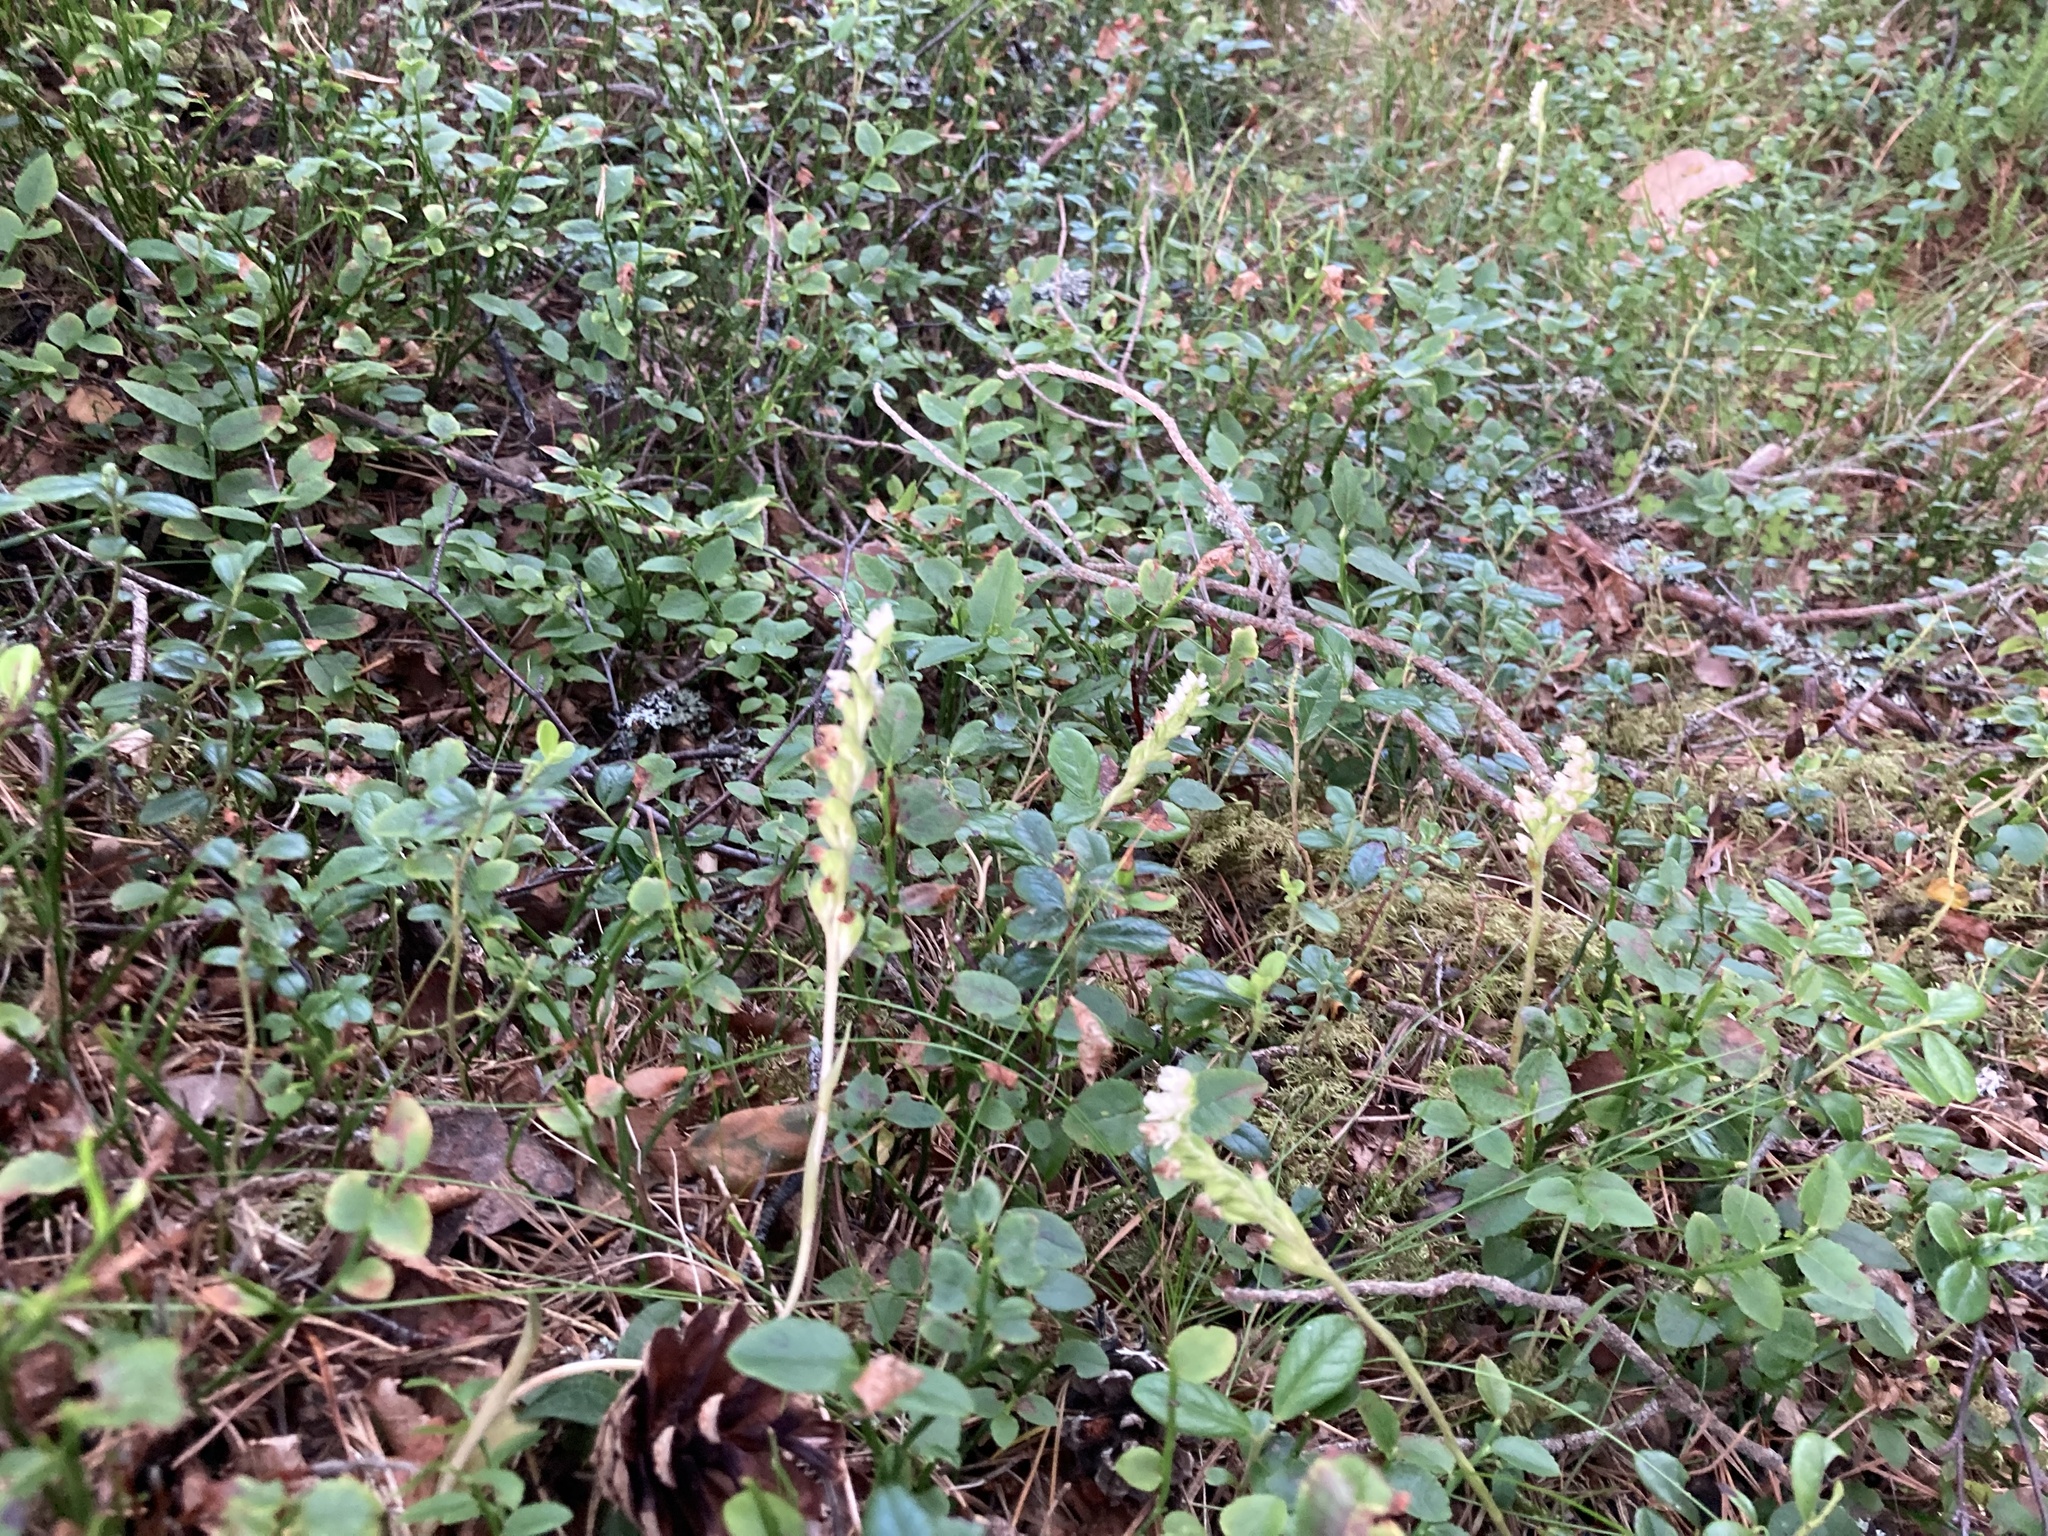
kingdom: Plantae
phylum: Tracheophyta
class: Liliopsida
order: Asparagales
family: Orchidaceae
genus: Goodyera
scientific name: Goodyera repens
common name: Creeping lady's-tresses
